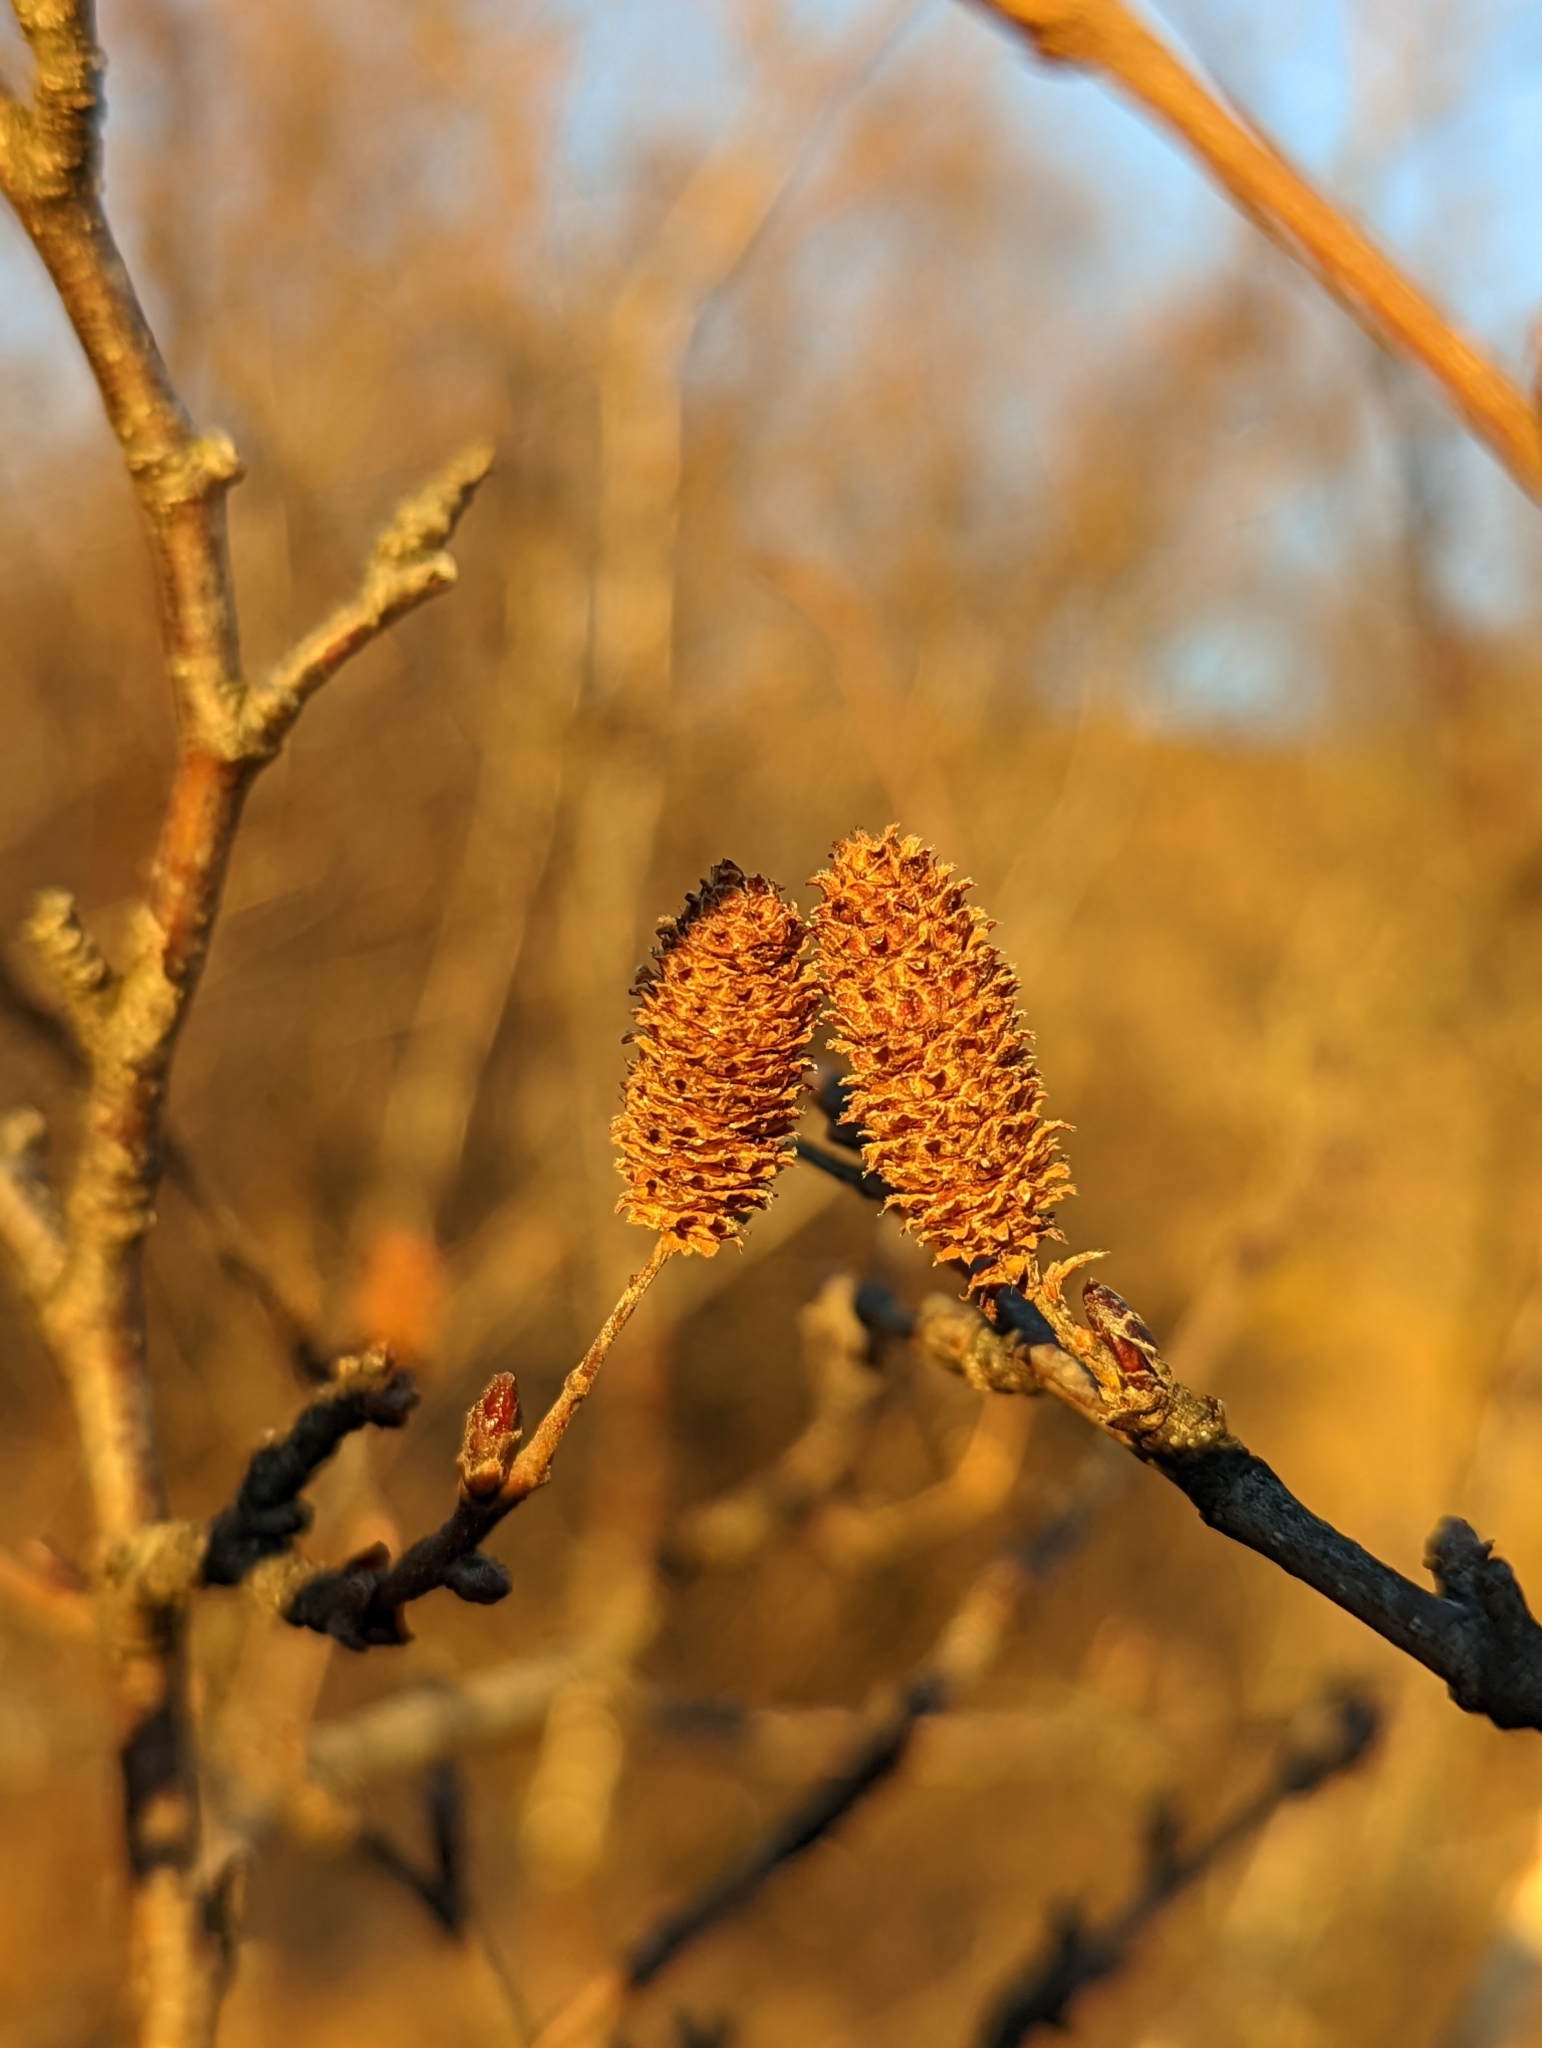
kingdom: Plantae
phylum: Tracheophyta
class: Magnoliopsida
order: Fagales
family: Betulaceae
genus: Betula
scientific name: Betula pubescens
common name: Downy birch
